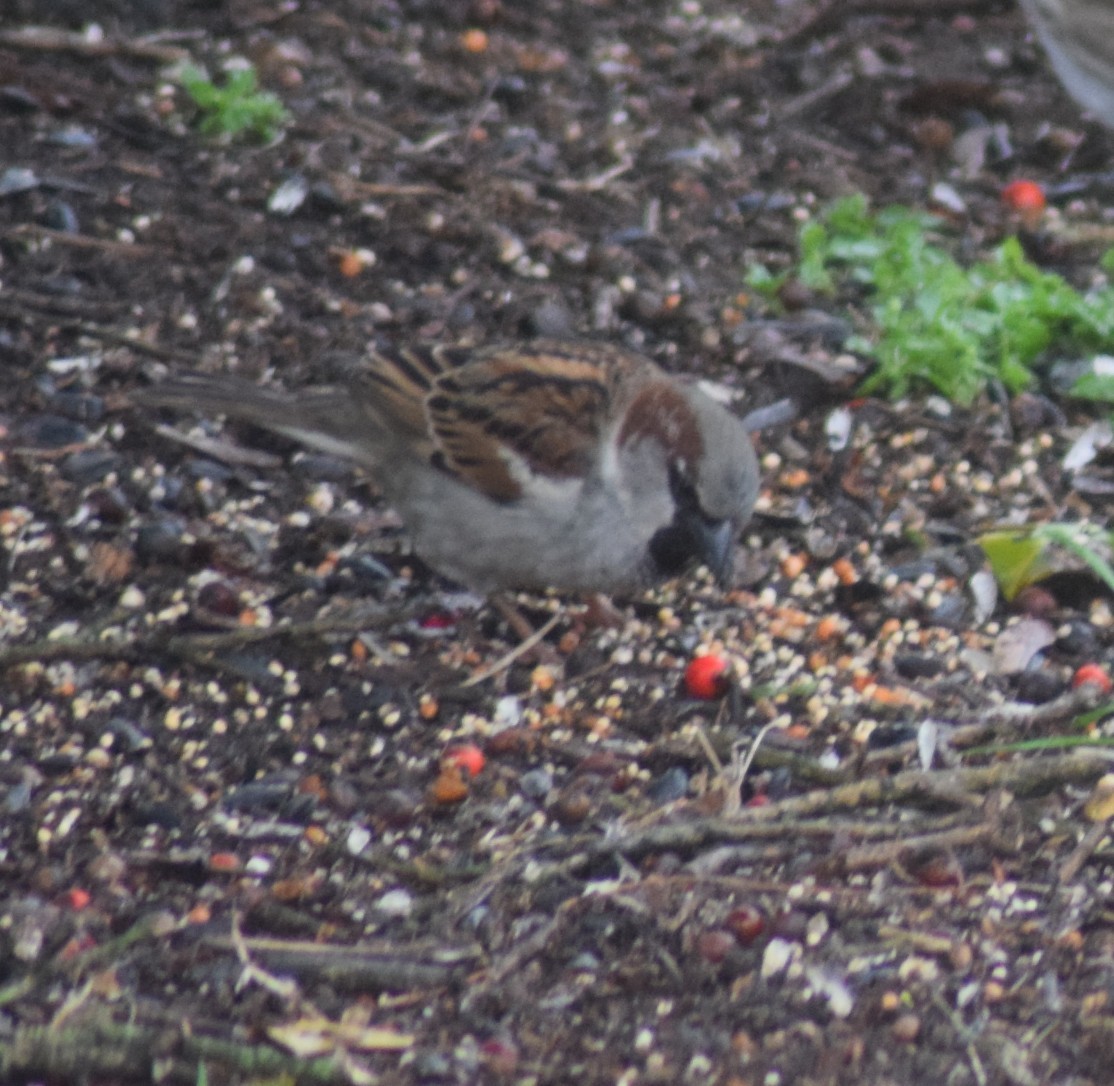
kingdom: Animalia
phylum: Chordata
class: Aves
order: Passeriformes
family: Passeridae
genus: Passer
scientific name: Passer domesticus
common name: House sparrow
